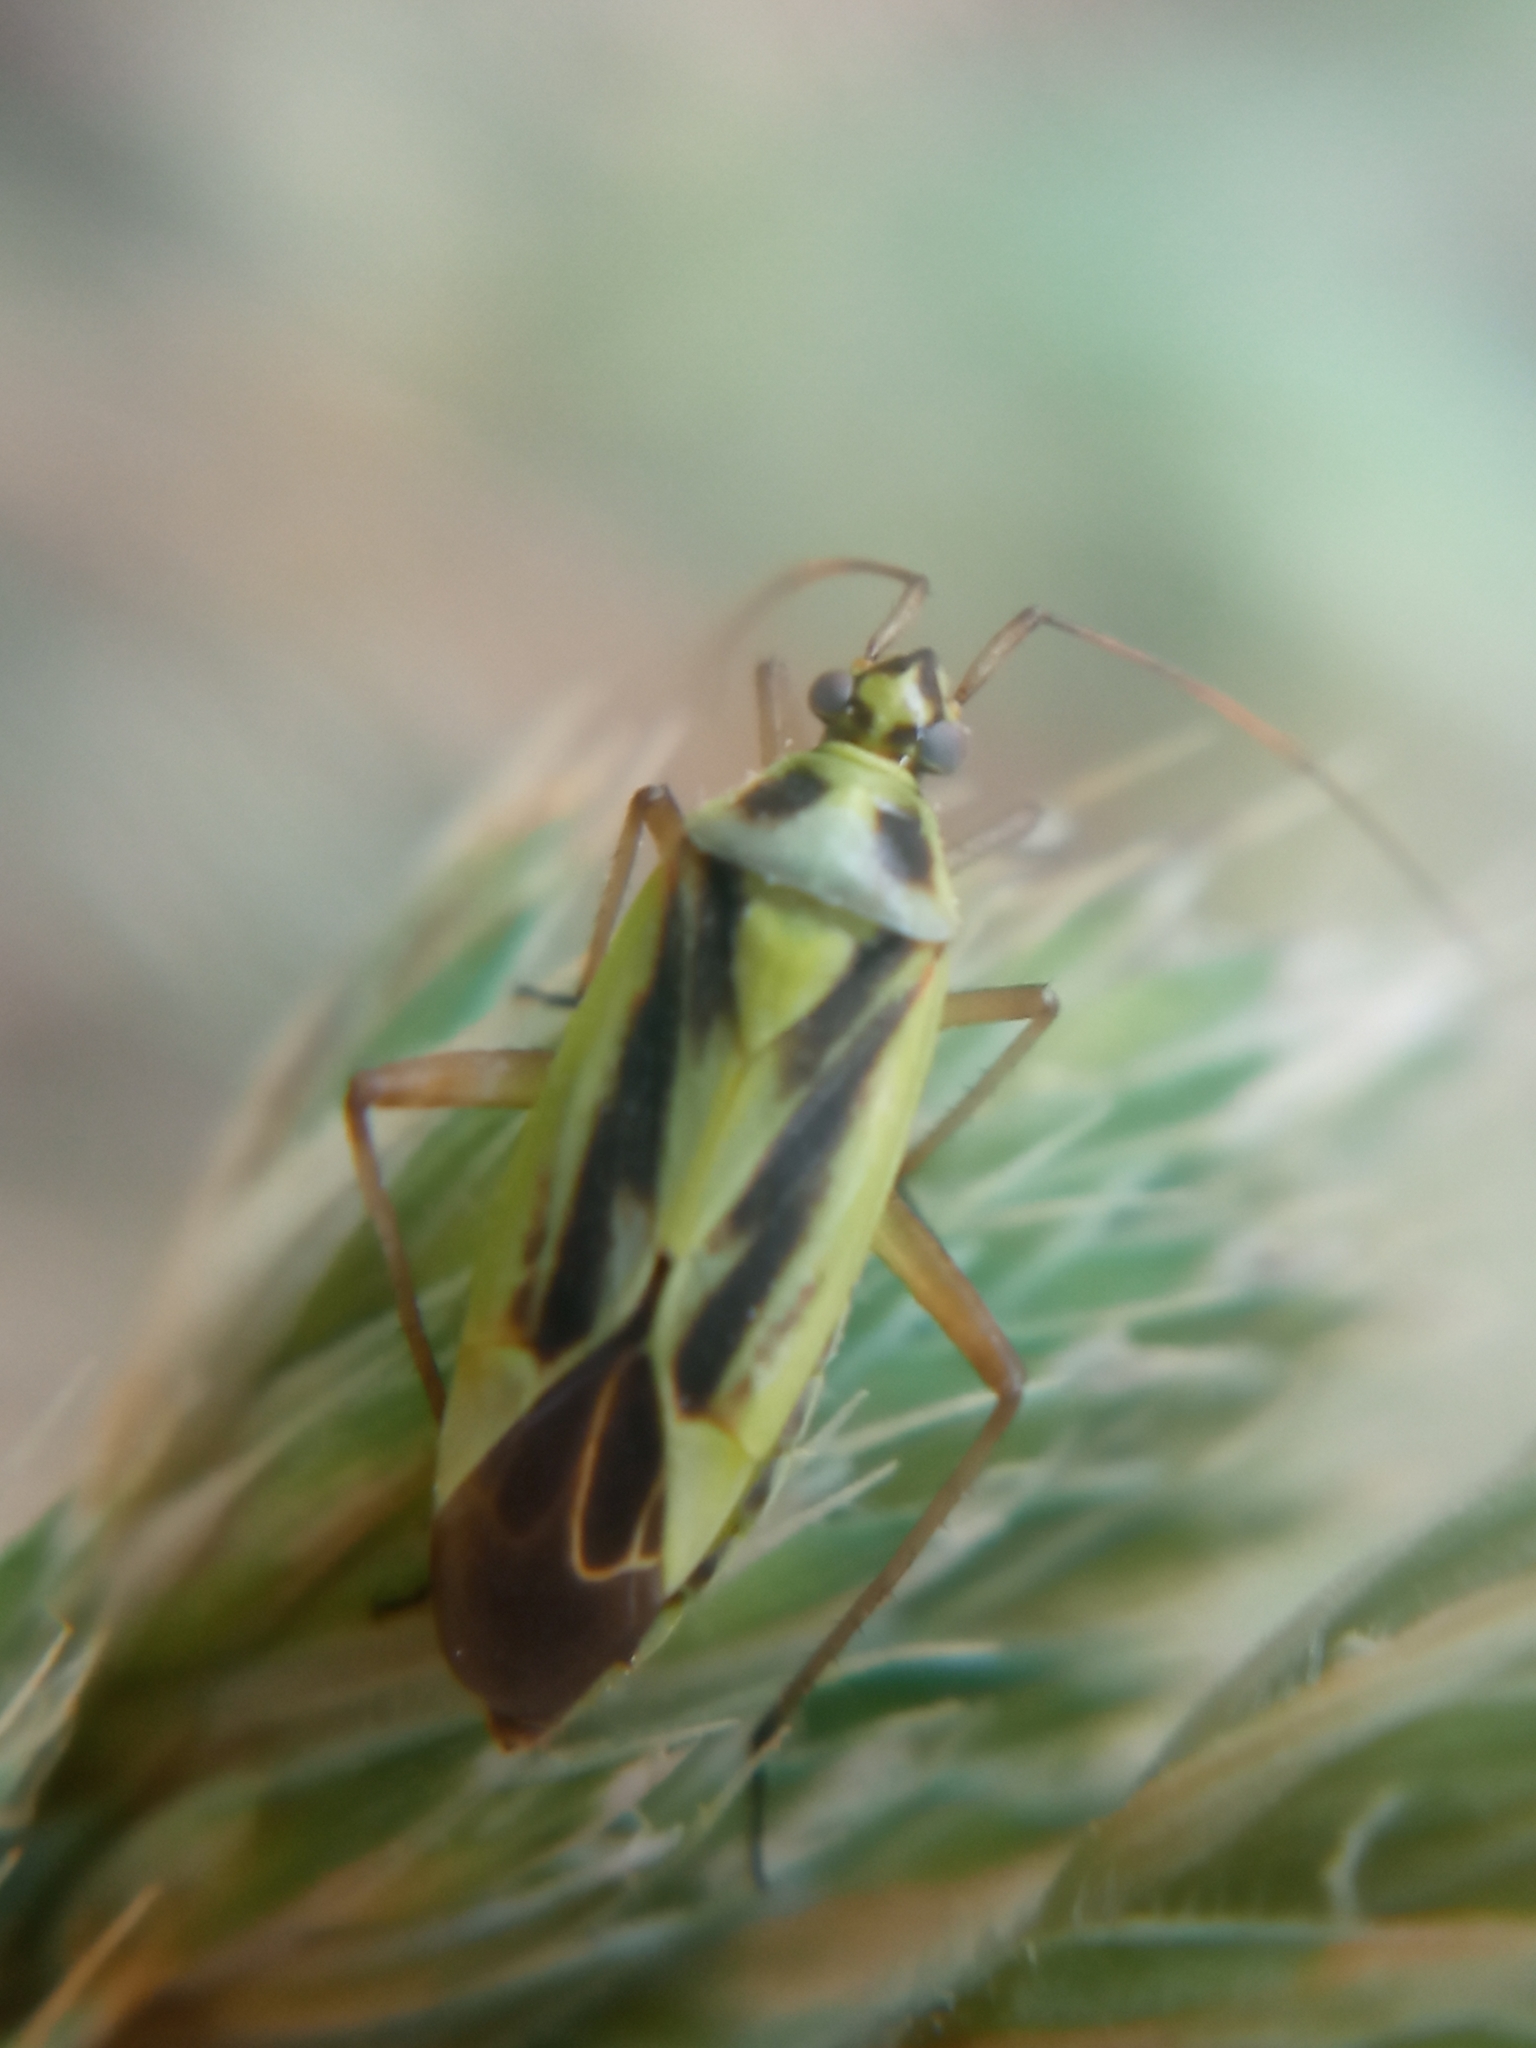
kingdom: Animalia
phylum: Arthropoda
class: Insecta
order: Hemiptera
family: Miridae
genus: Stenotus
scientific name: Stenotus binotatus
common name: Plant bug
